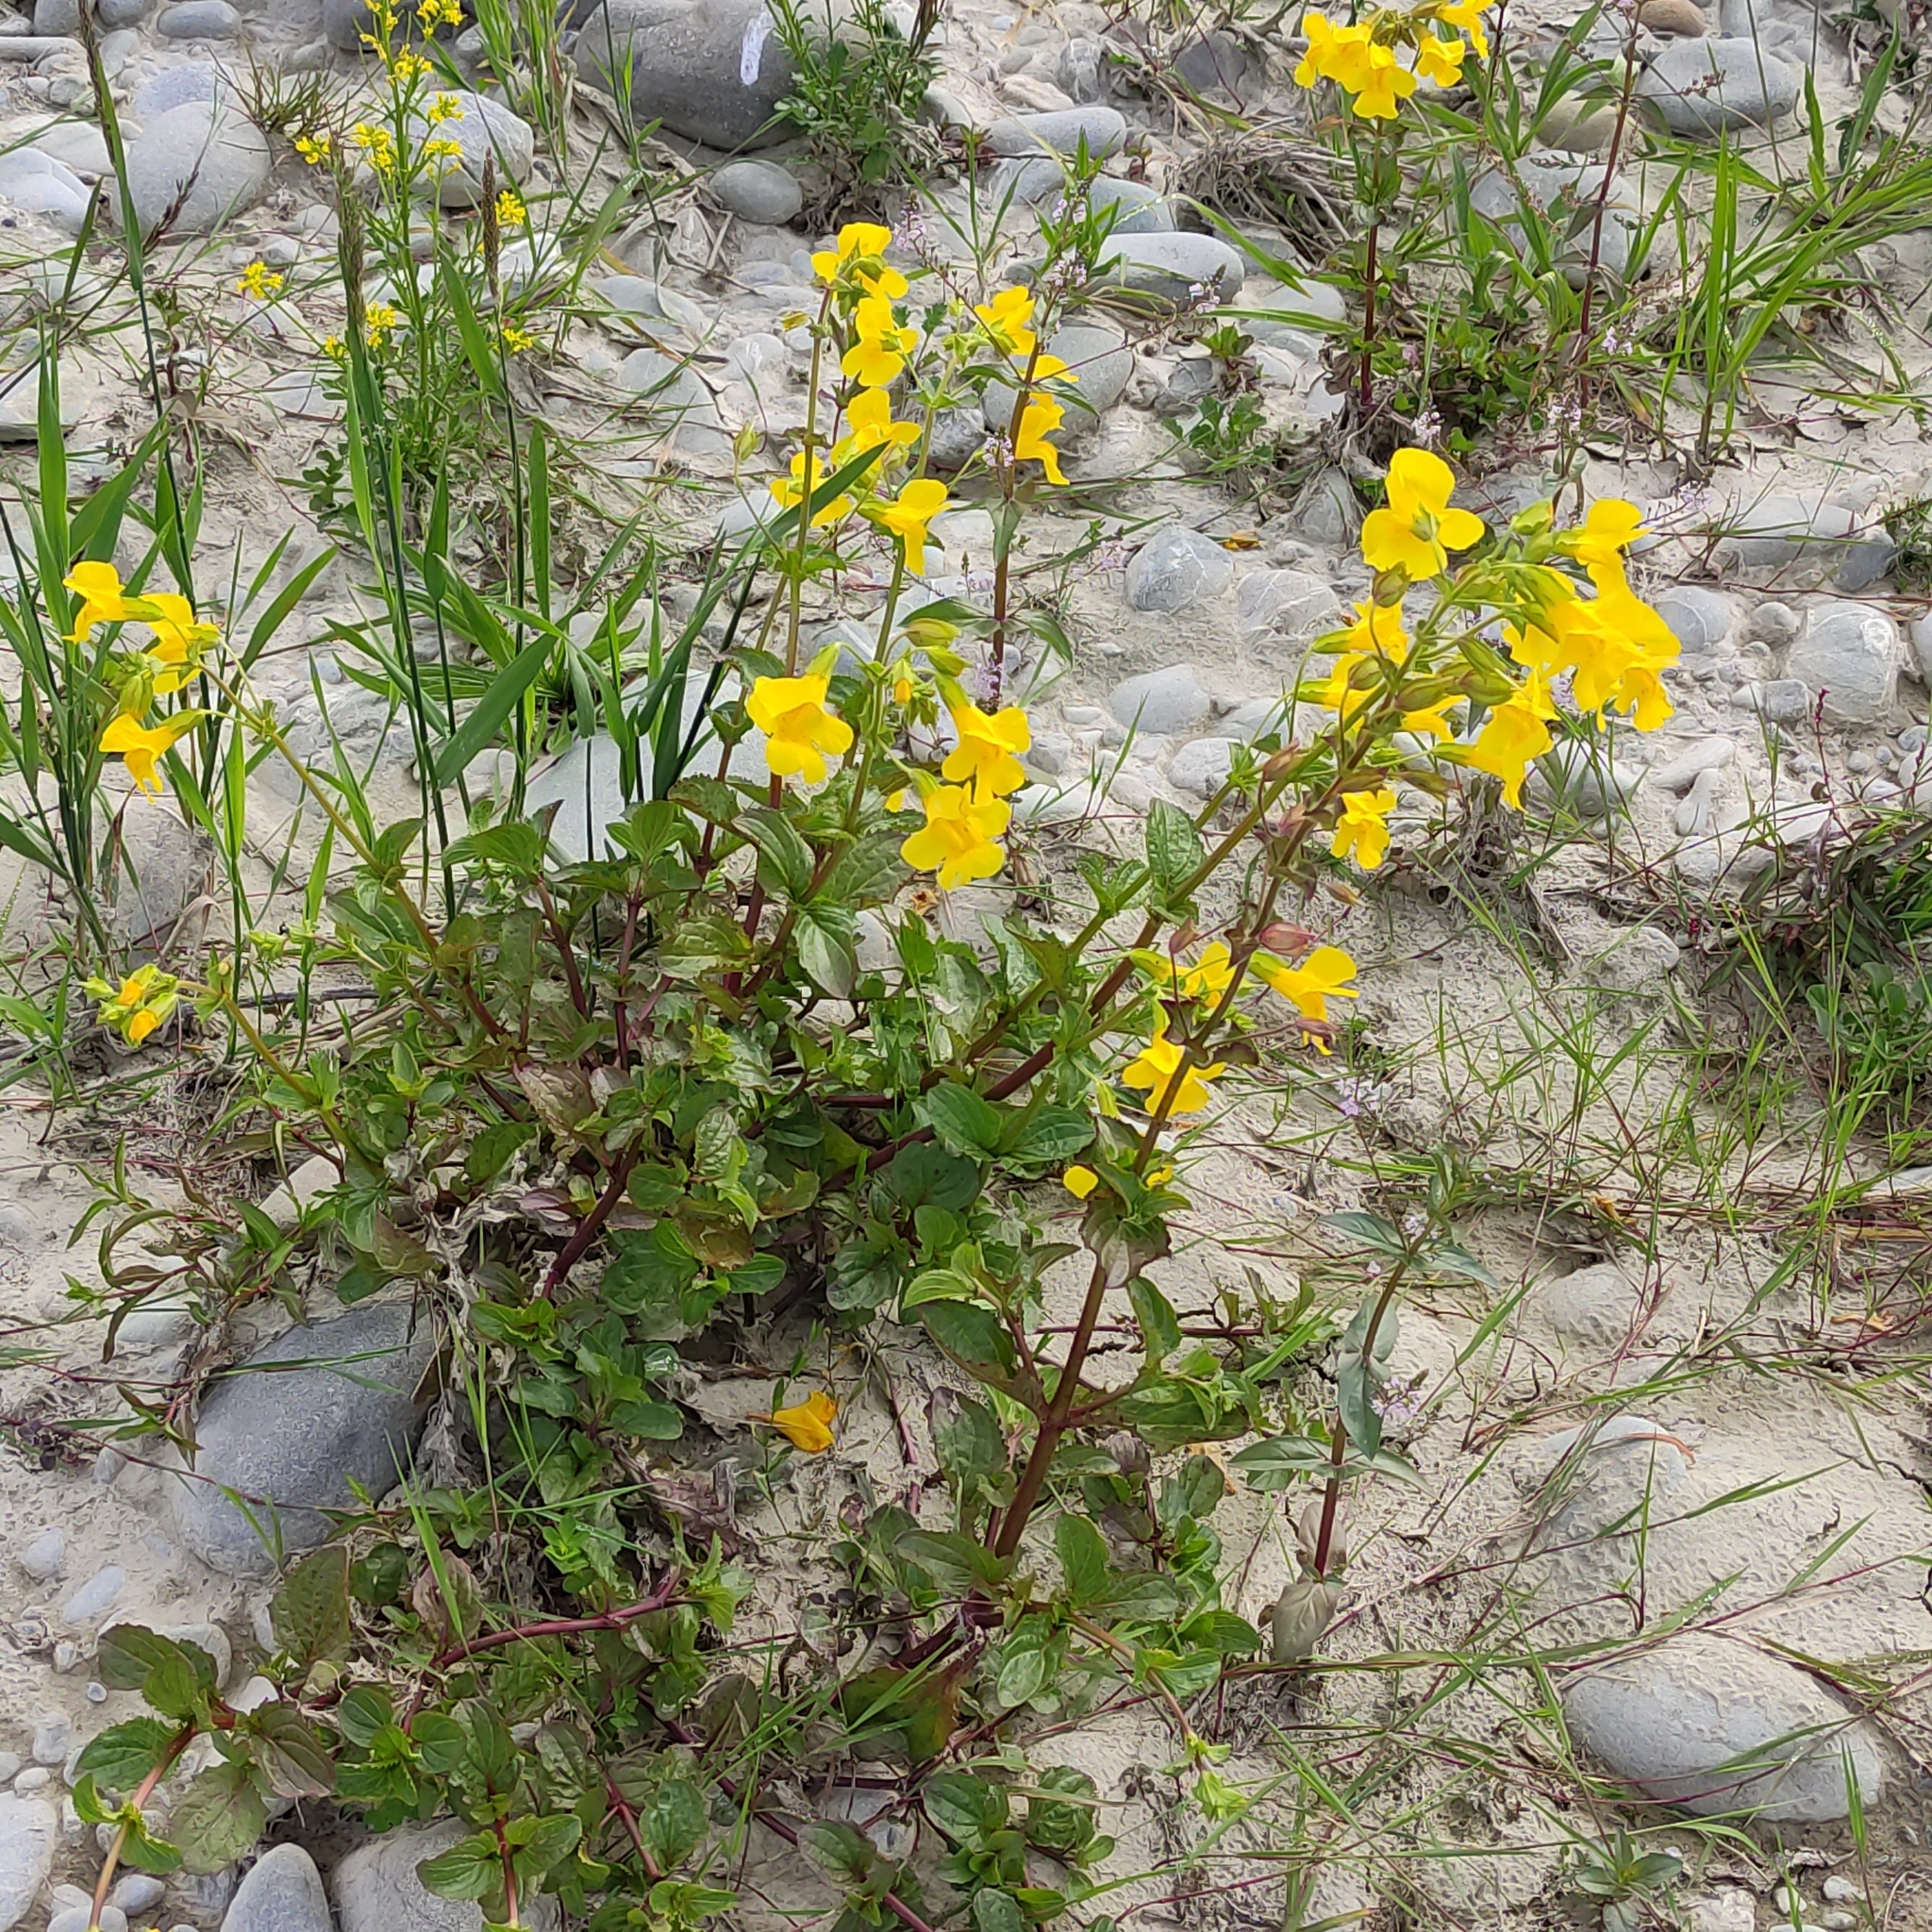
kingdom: Plantae
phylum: Tracheophyta
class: Magnoliopsida
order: Lamiales
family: Phrymaceae
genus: Erythranthe
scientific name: Erythranthe guttata
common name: Monkeyflower
